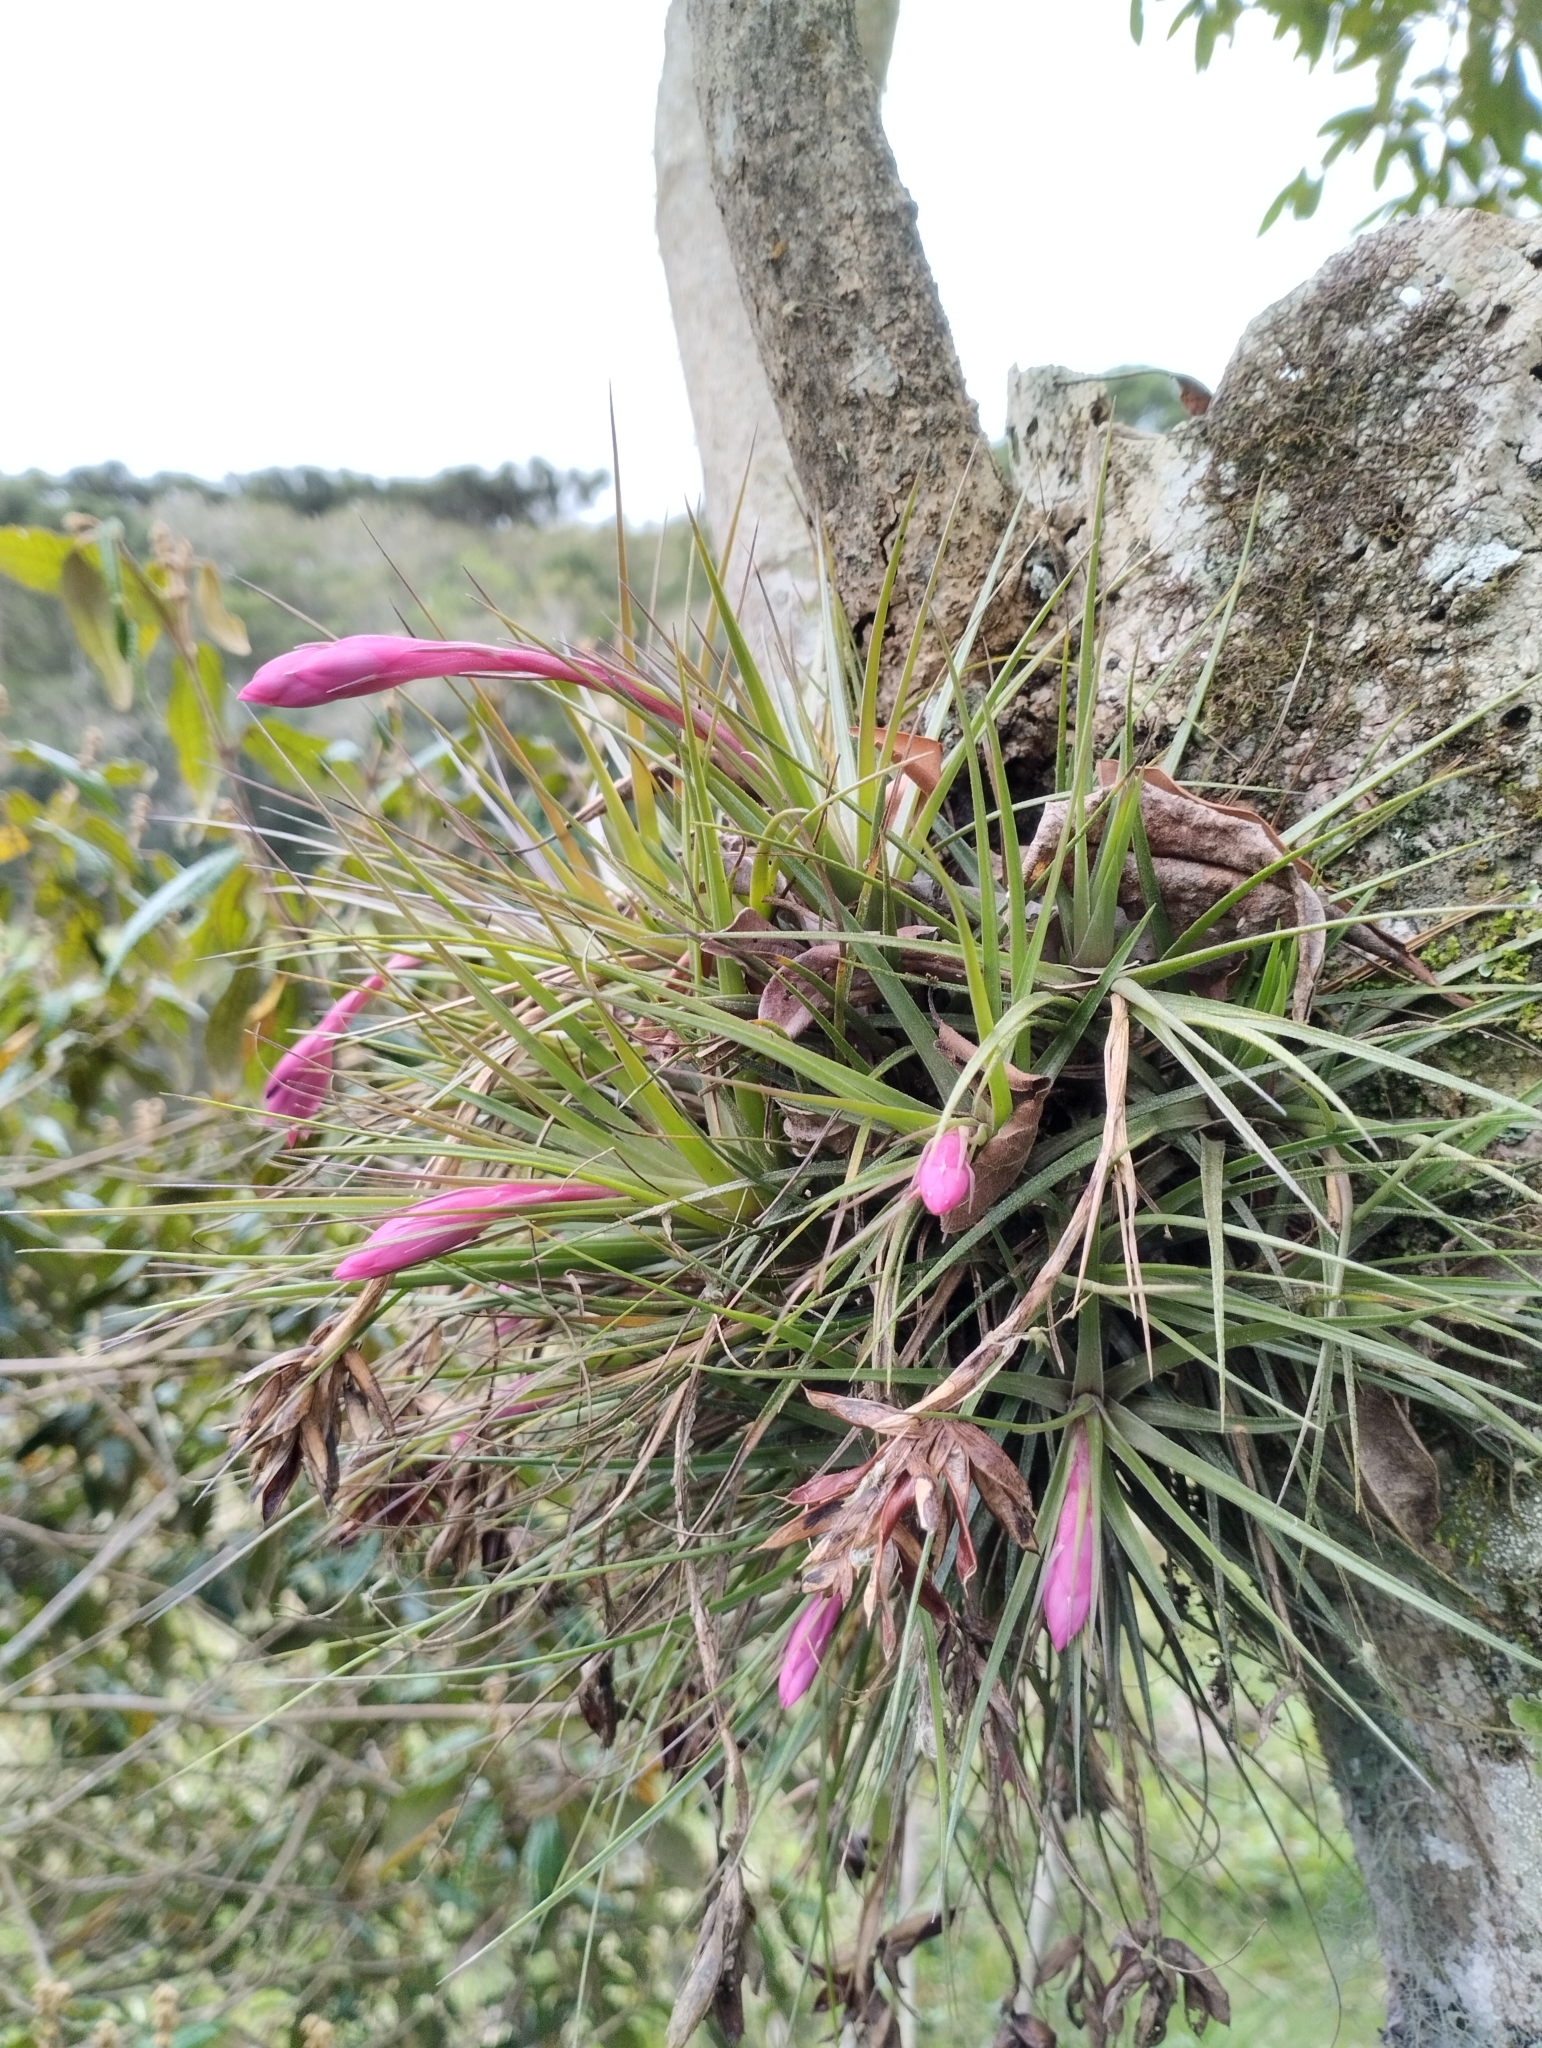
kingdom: Plantae
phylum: Tracheophyta
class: Liliopsida
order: Poales
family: Bromeliaceae
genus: Tillandsia
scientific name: Tillandsia aeranthos
